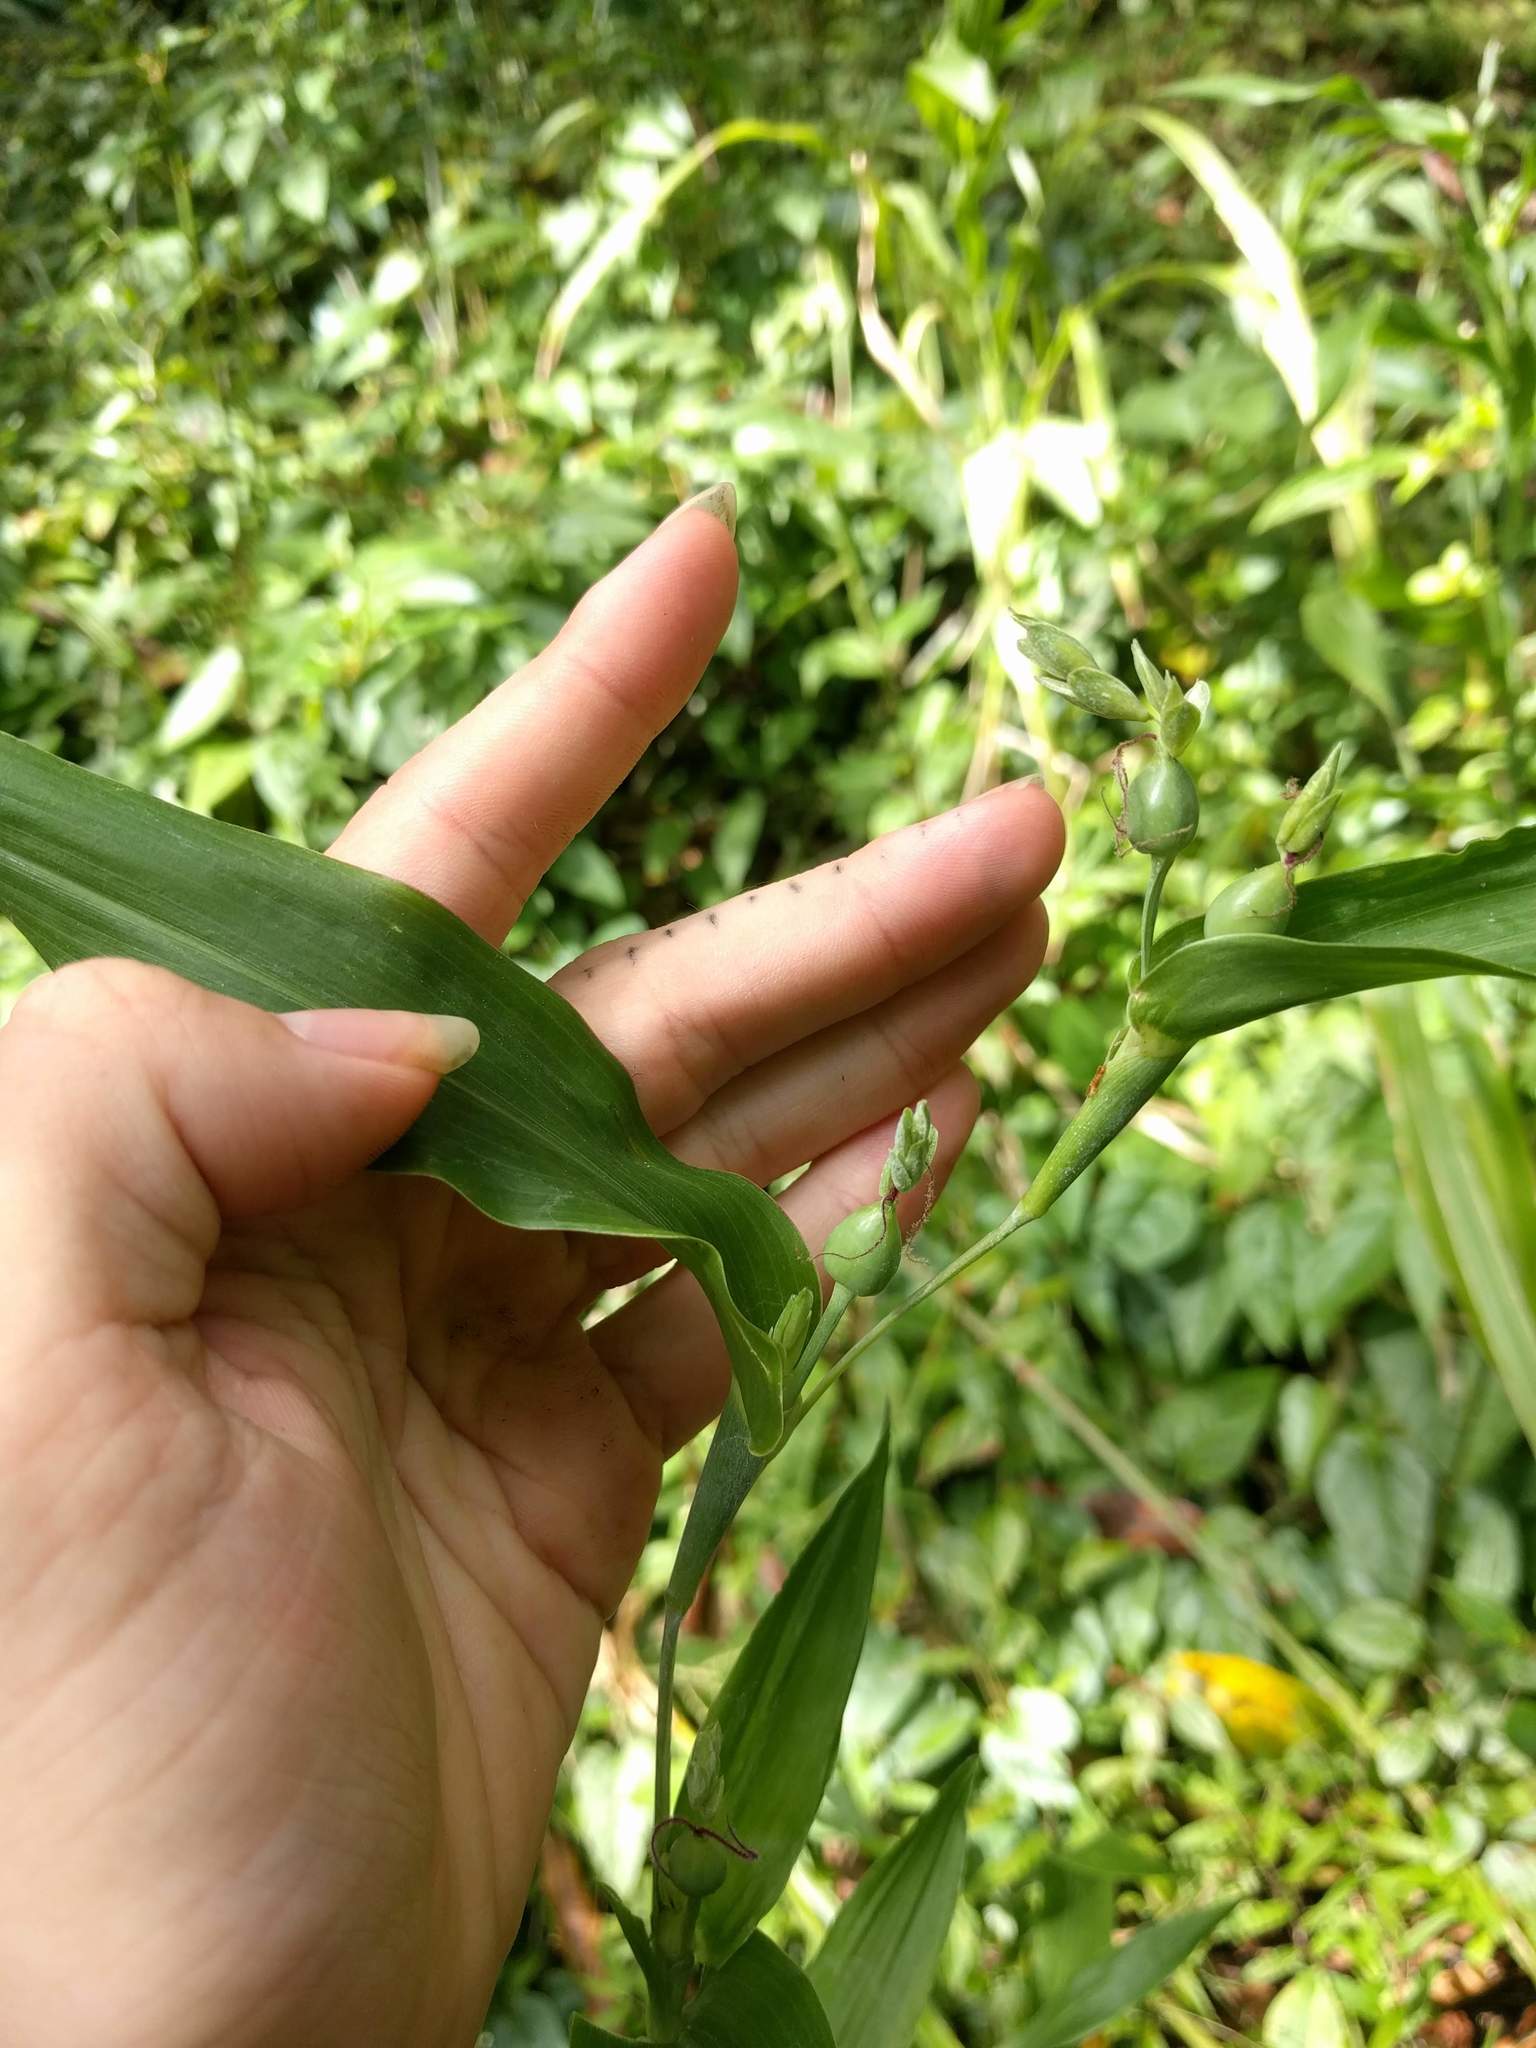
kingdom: Plantae
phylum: Tracheophyta
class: Liliopsida
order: Poales
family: Poaceae
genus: Coix
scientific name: Coix lacryma-jobi
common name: Job's tears
